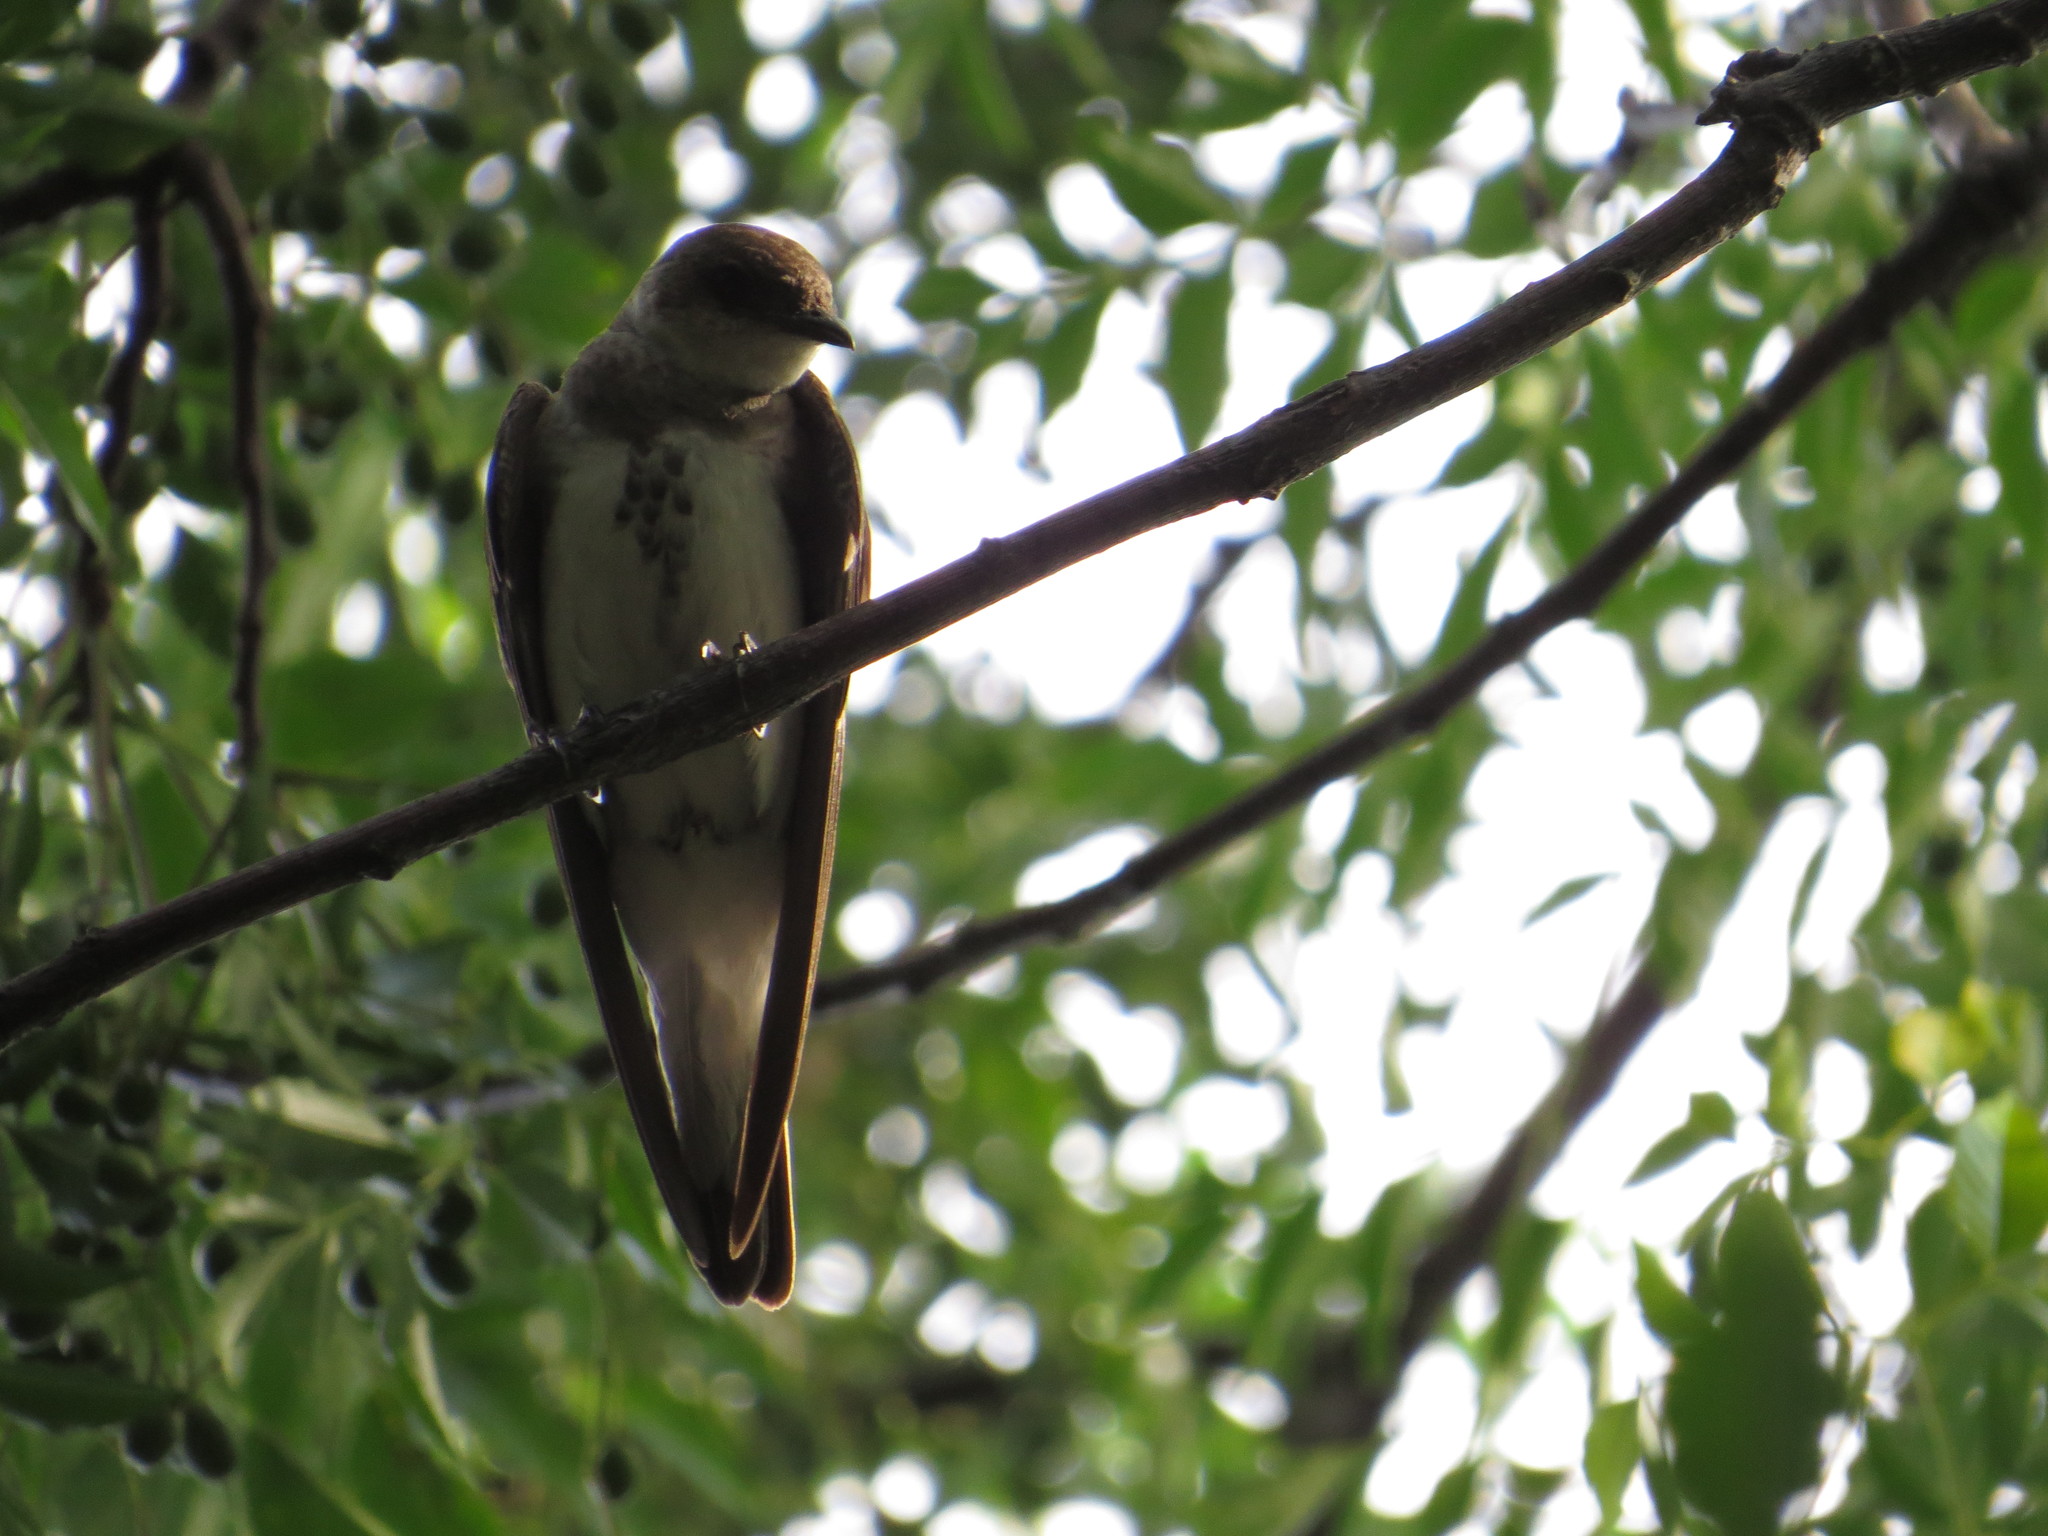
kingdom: Animalia
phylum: Chordata
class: Aves
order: Passeriformes
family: Hirundinidae
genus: Progne
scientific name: Progne tapera
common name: Brown-chested martin
